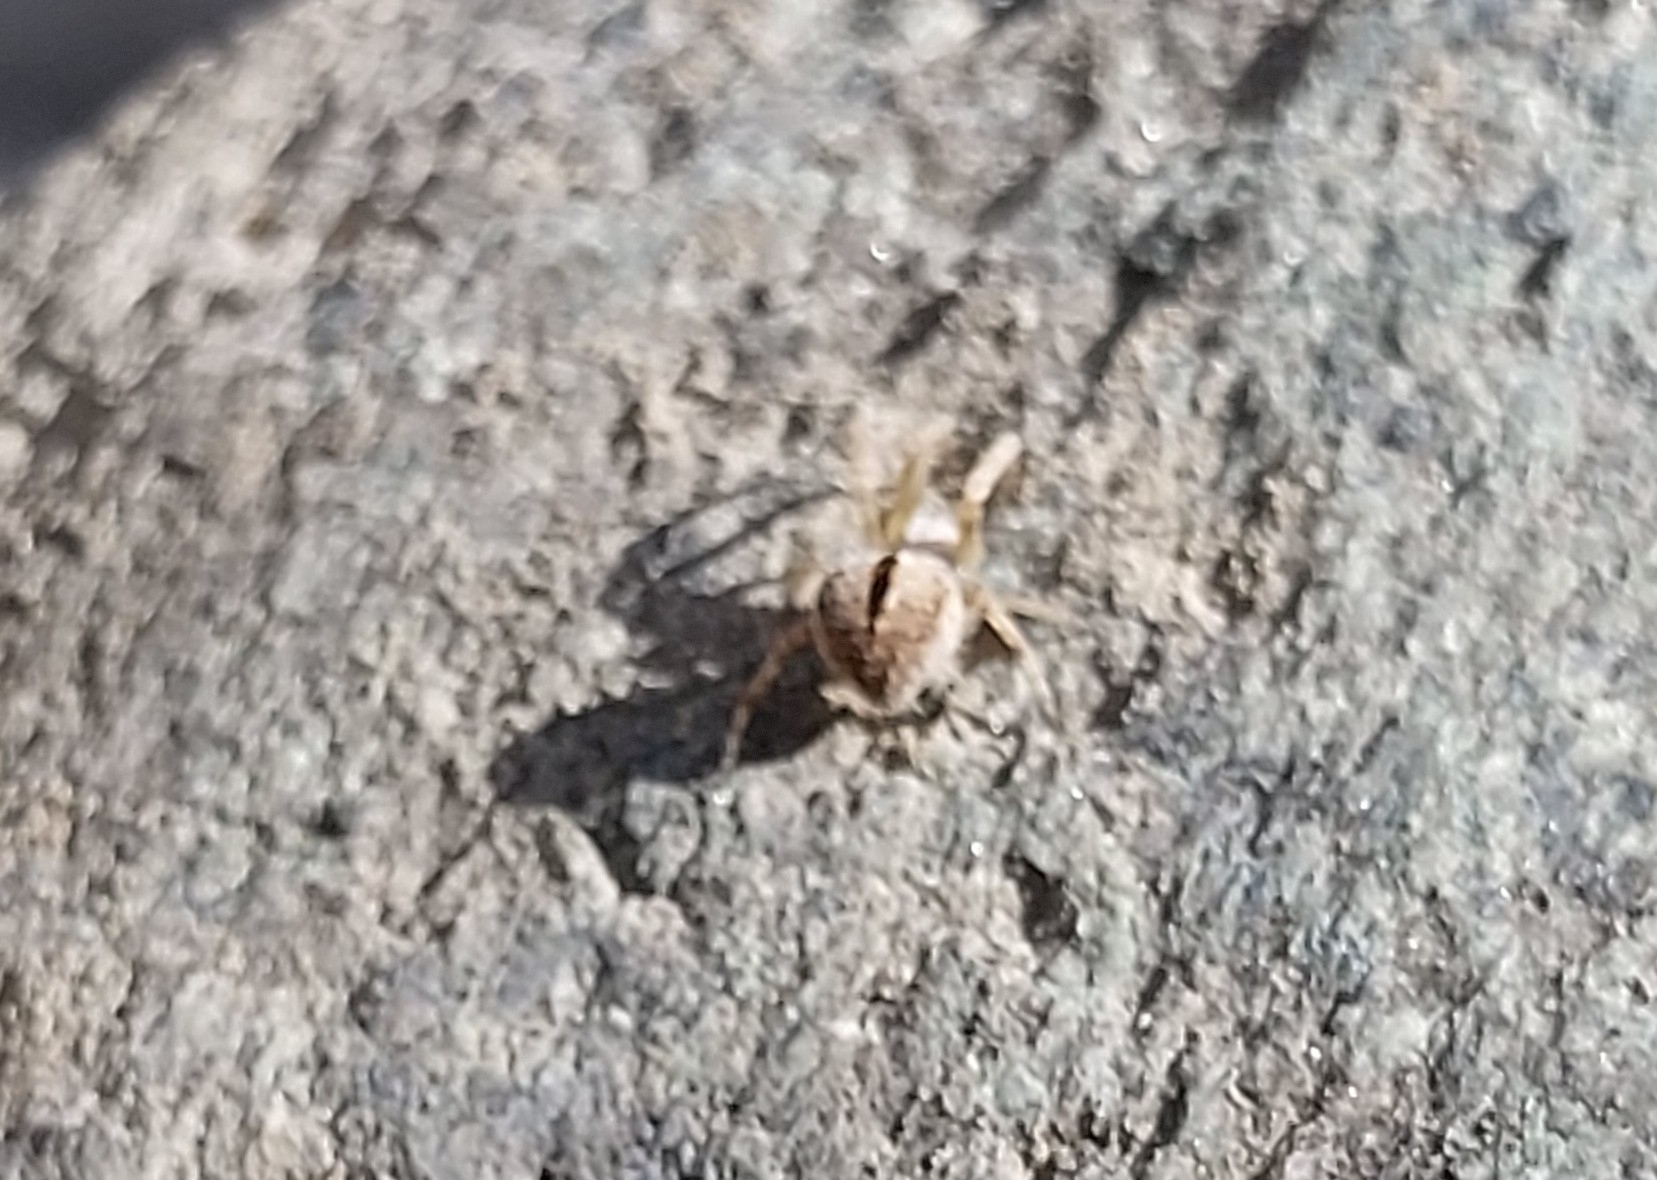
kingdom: Animalia
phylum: Arthropoda
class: Arachnida
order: Araneae
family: Araneidae
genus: Agalenatea
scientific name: Agalenatea redii
